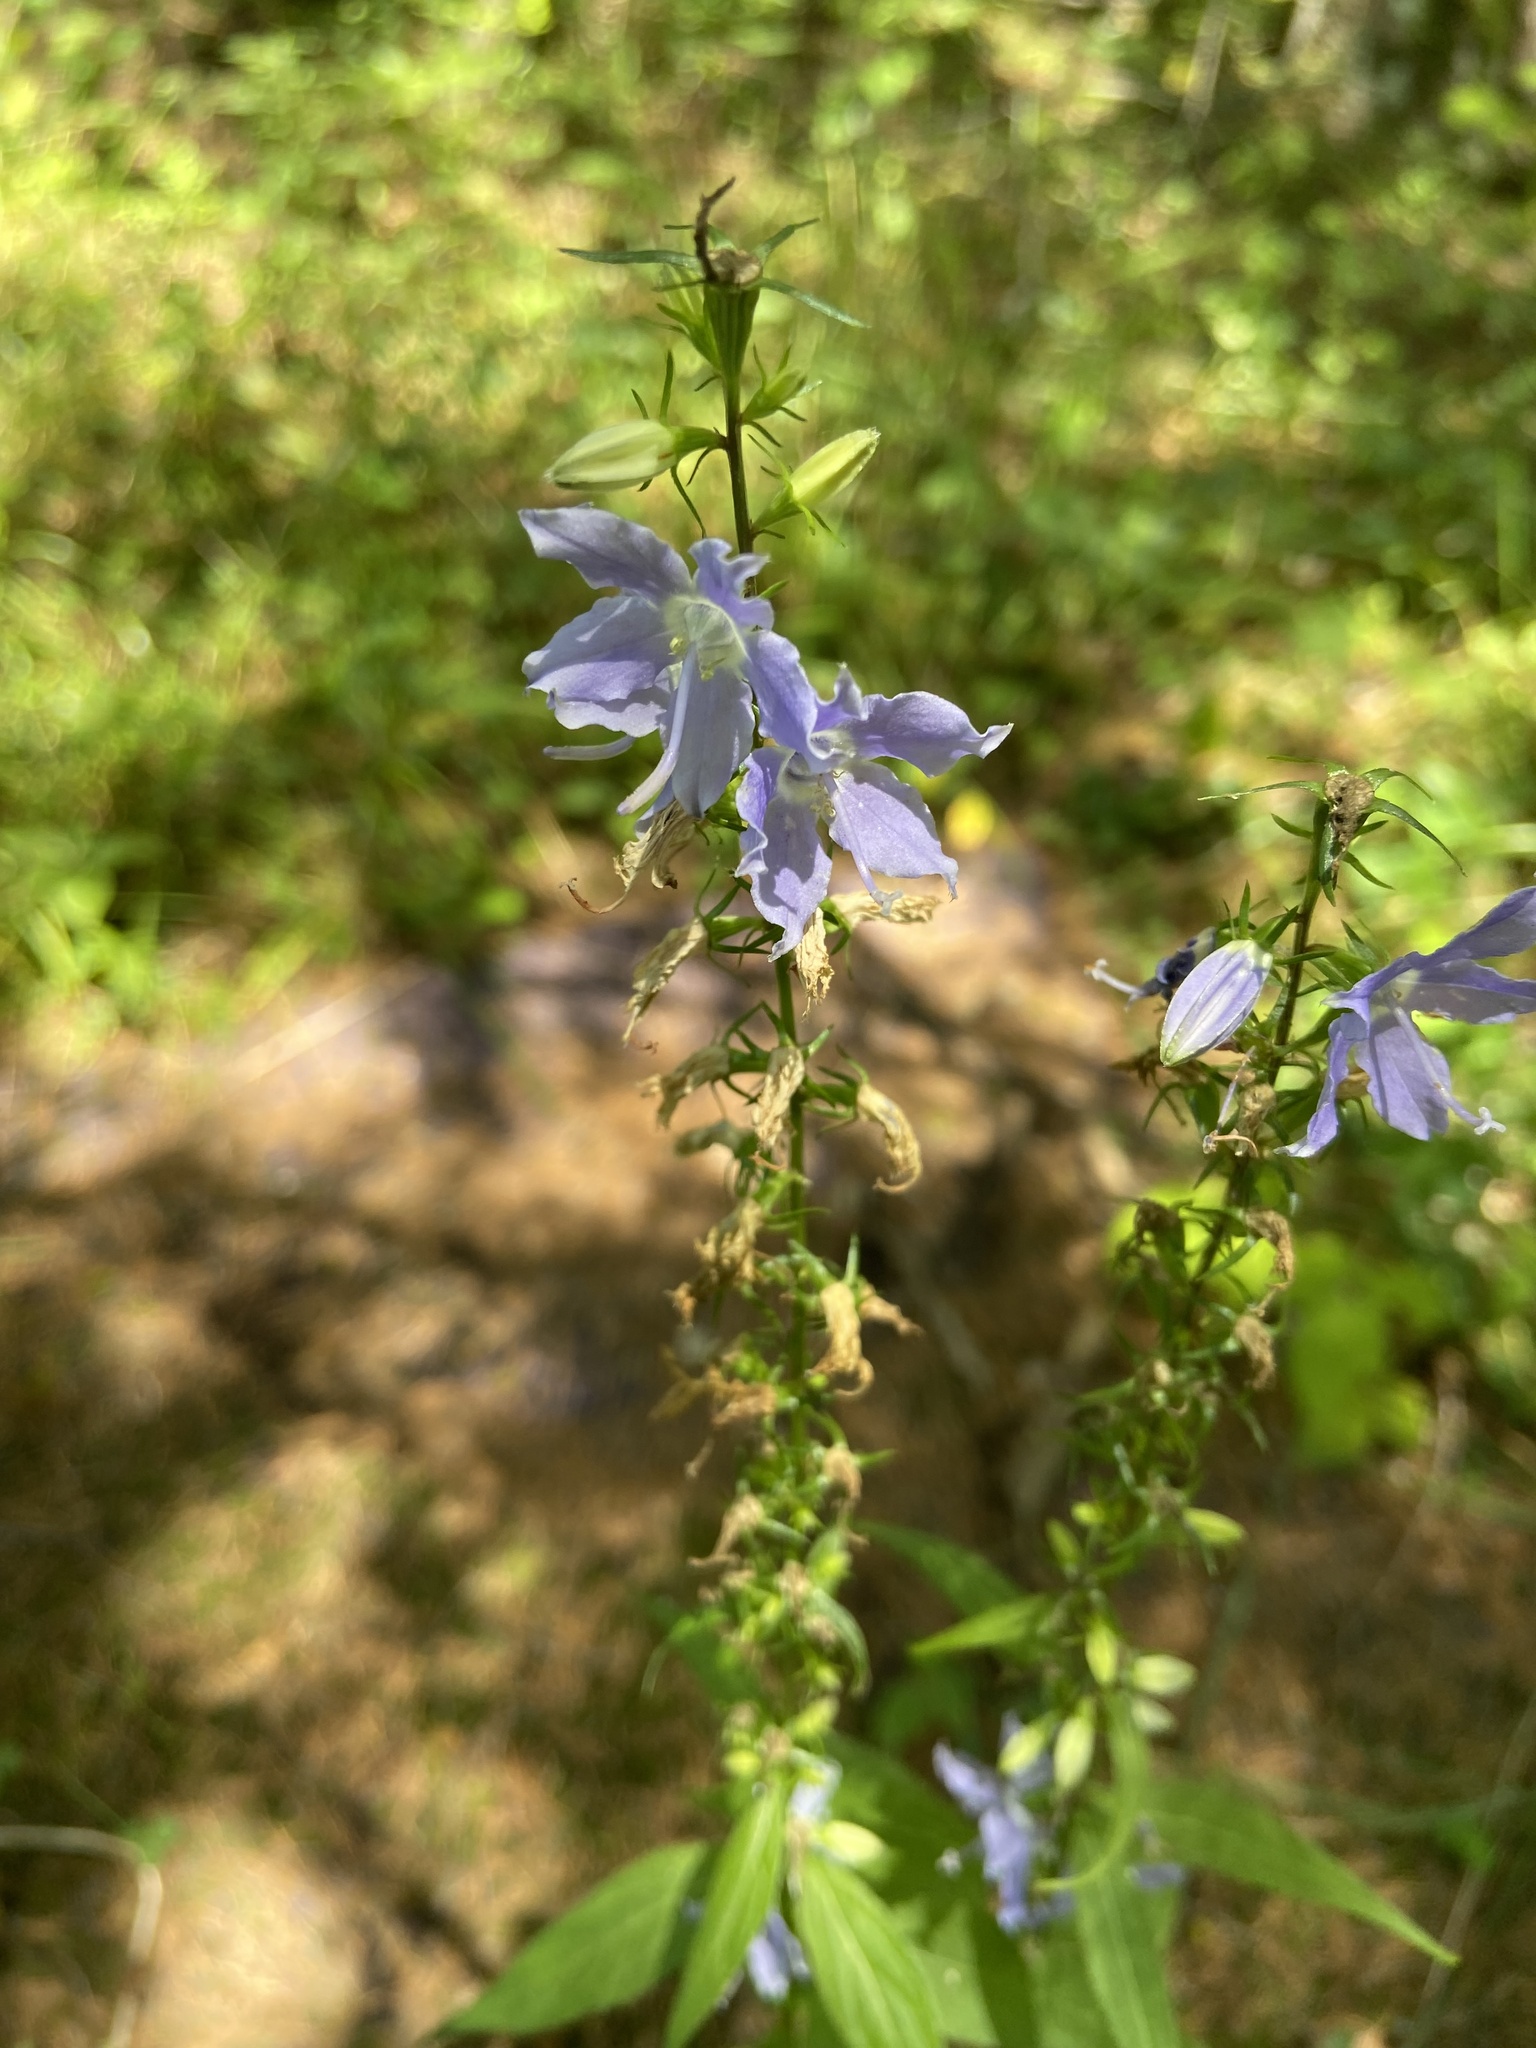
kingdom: Plantae
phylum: Tracheophyta
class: Magnoliopsida
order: Asterales
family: Campanulaceae
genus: Campanulastrum
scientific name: Campanulastrum americanum
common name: American bellflower
